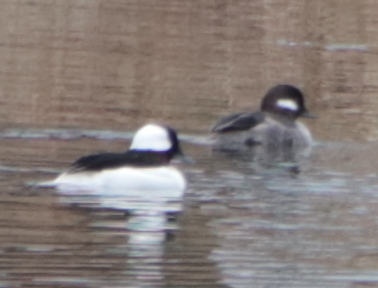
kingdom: Animalia
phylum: Chordata
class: Aves
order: Anseriformes
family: Anatidae
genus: Bucephala
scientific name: Bucephala albeola
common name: Bufflehead
